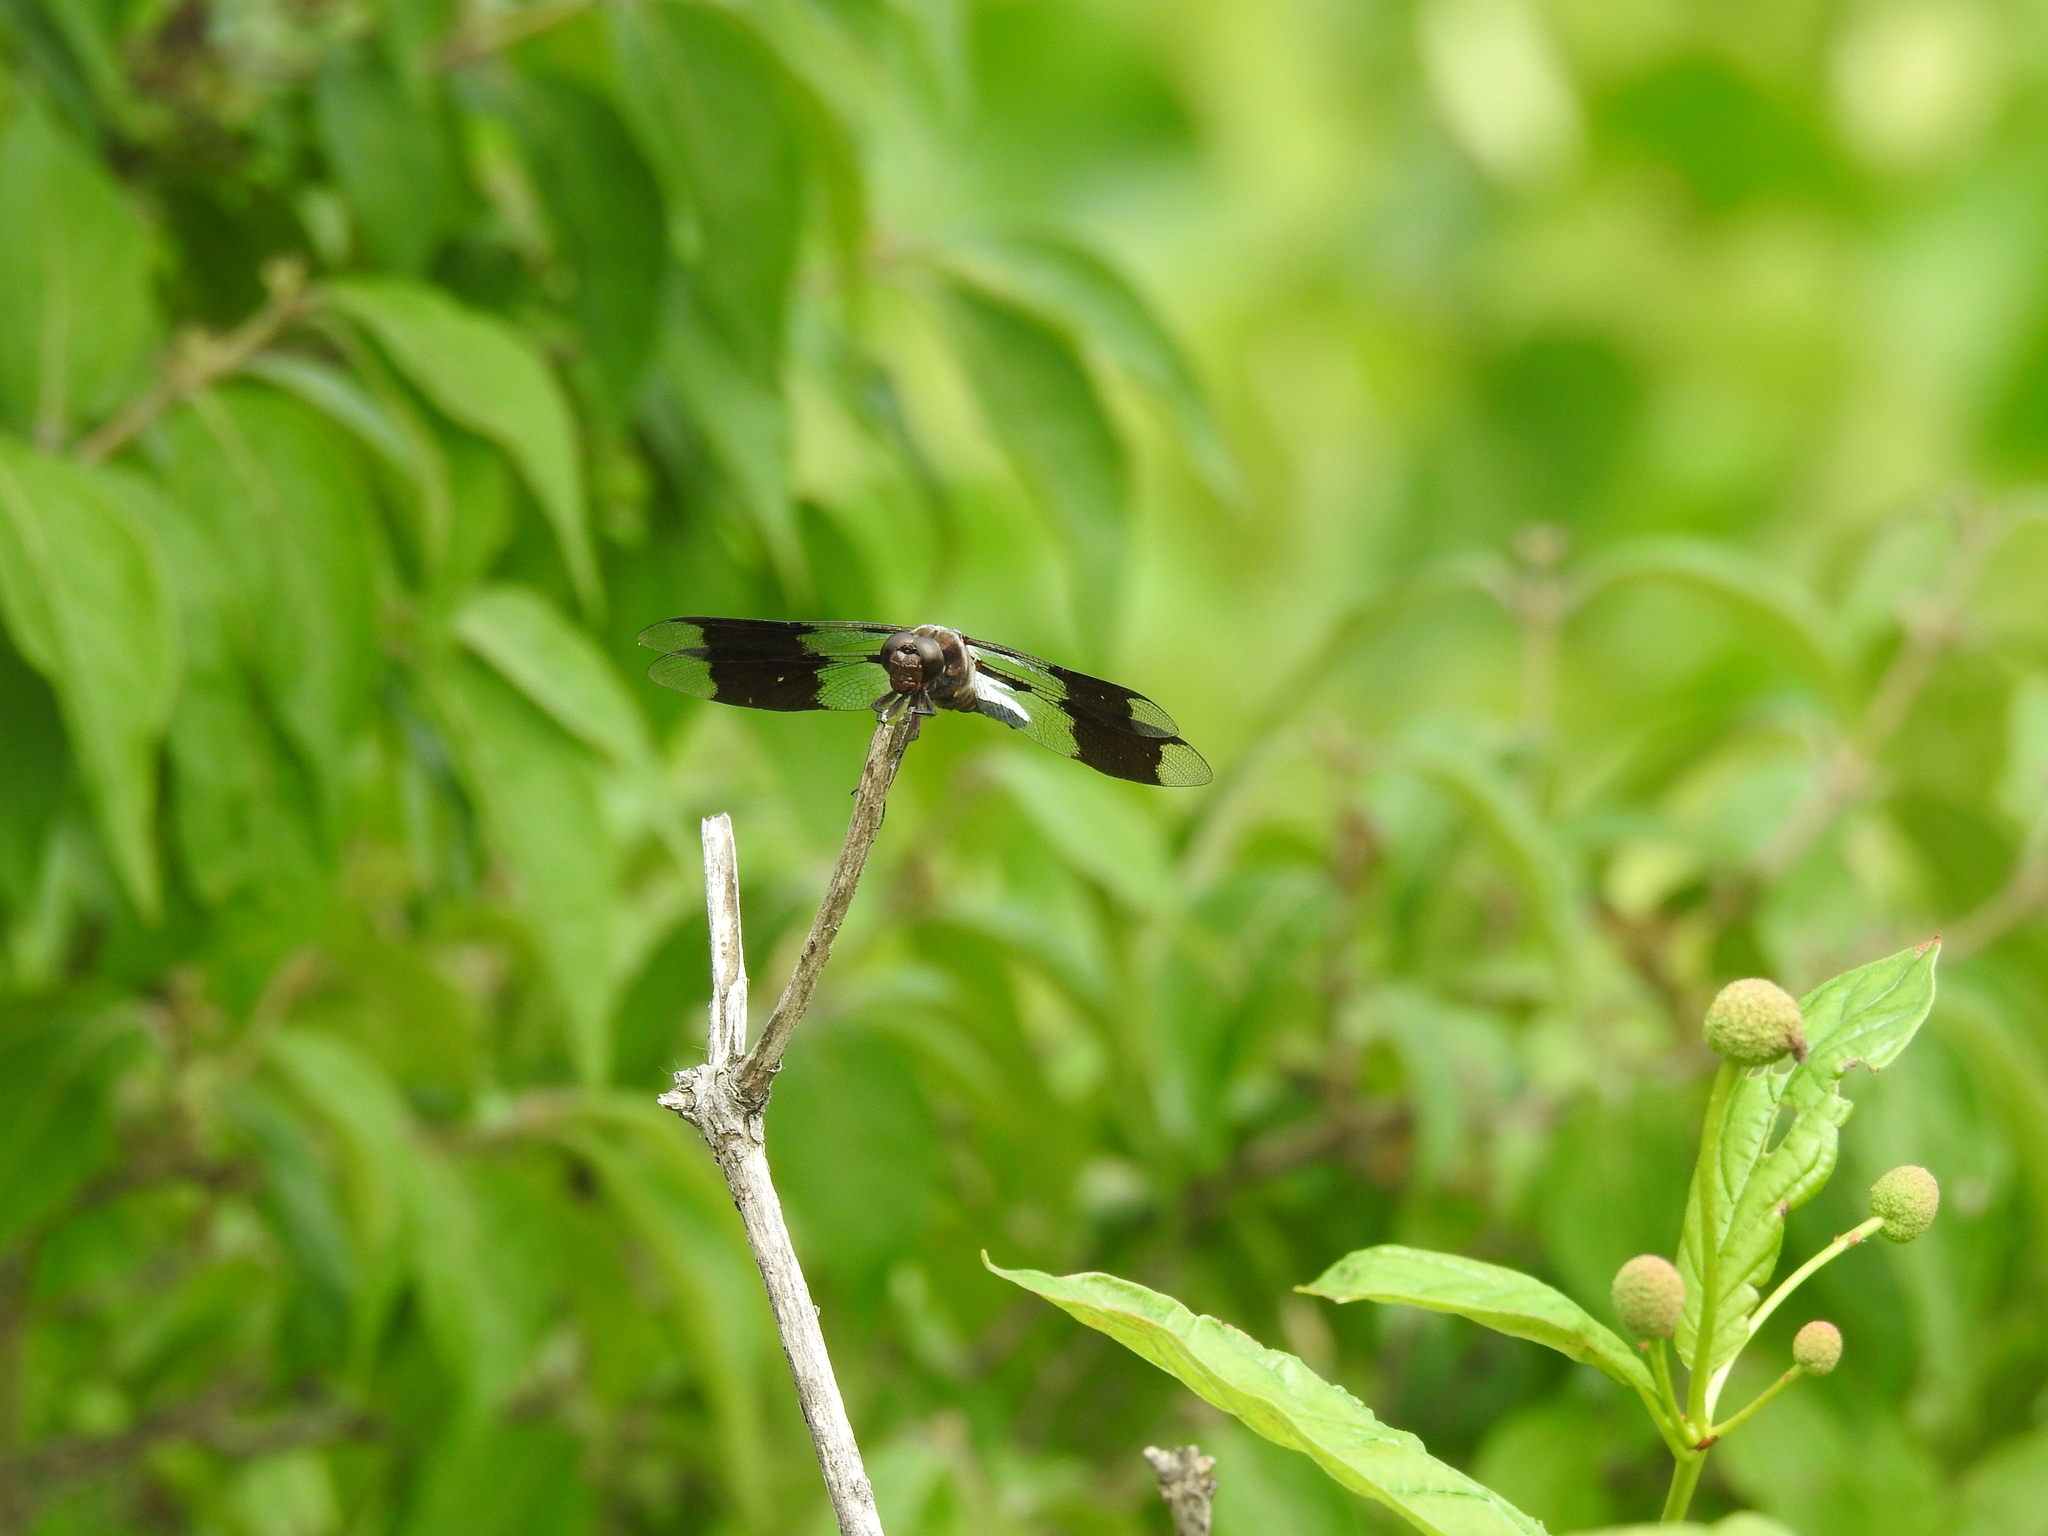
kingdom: Animalia
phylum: Arthropoda
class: Insecta
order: Odonata
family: Libellulidae
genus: Plathemis
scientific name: Plathemis lydia
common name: Common whitetail
